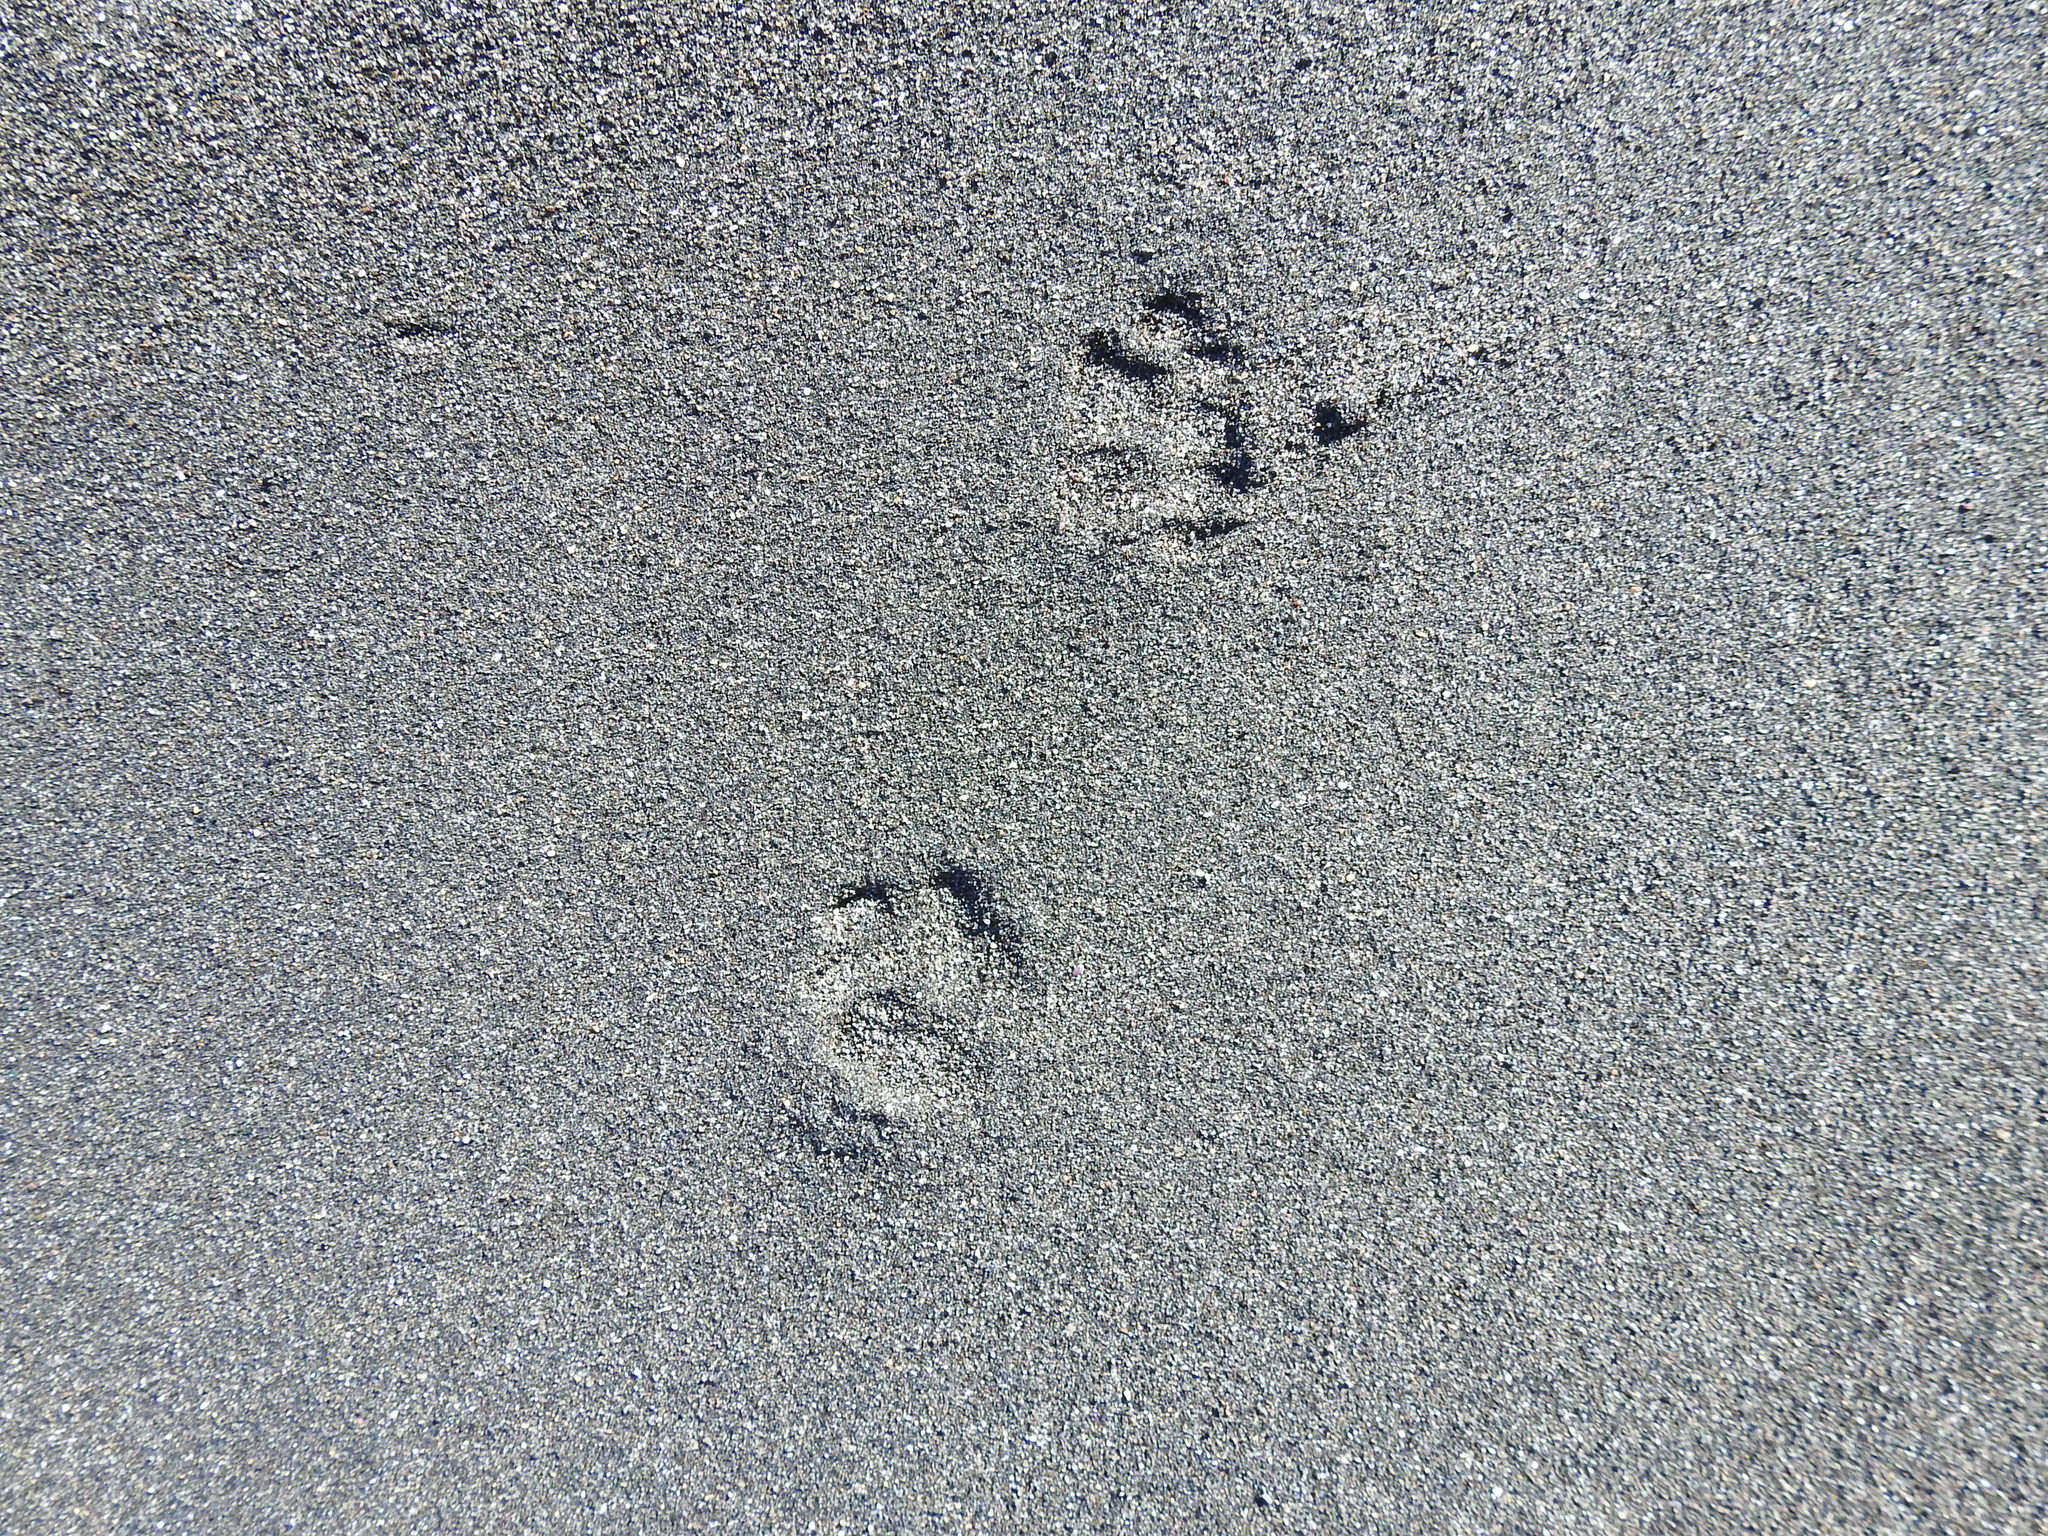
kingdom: Animalia
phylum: Chordata
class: Mammalia
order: Carnivora
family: Felidae
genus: Felis
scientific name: Felis catus
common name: Domestic cat
